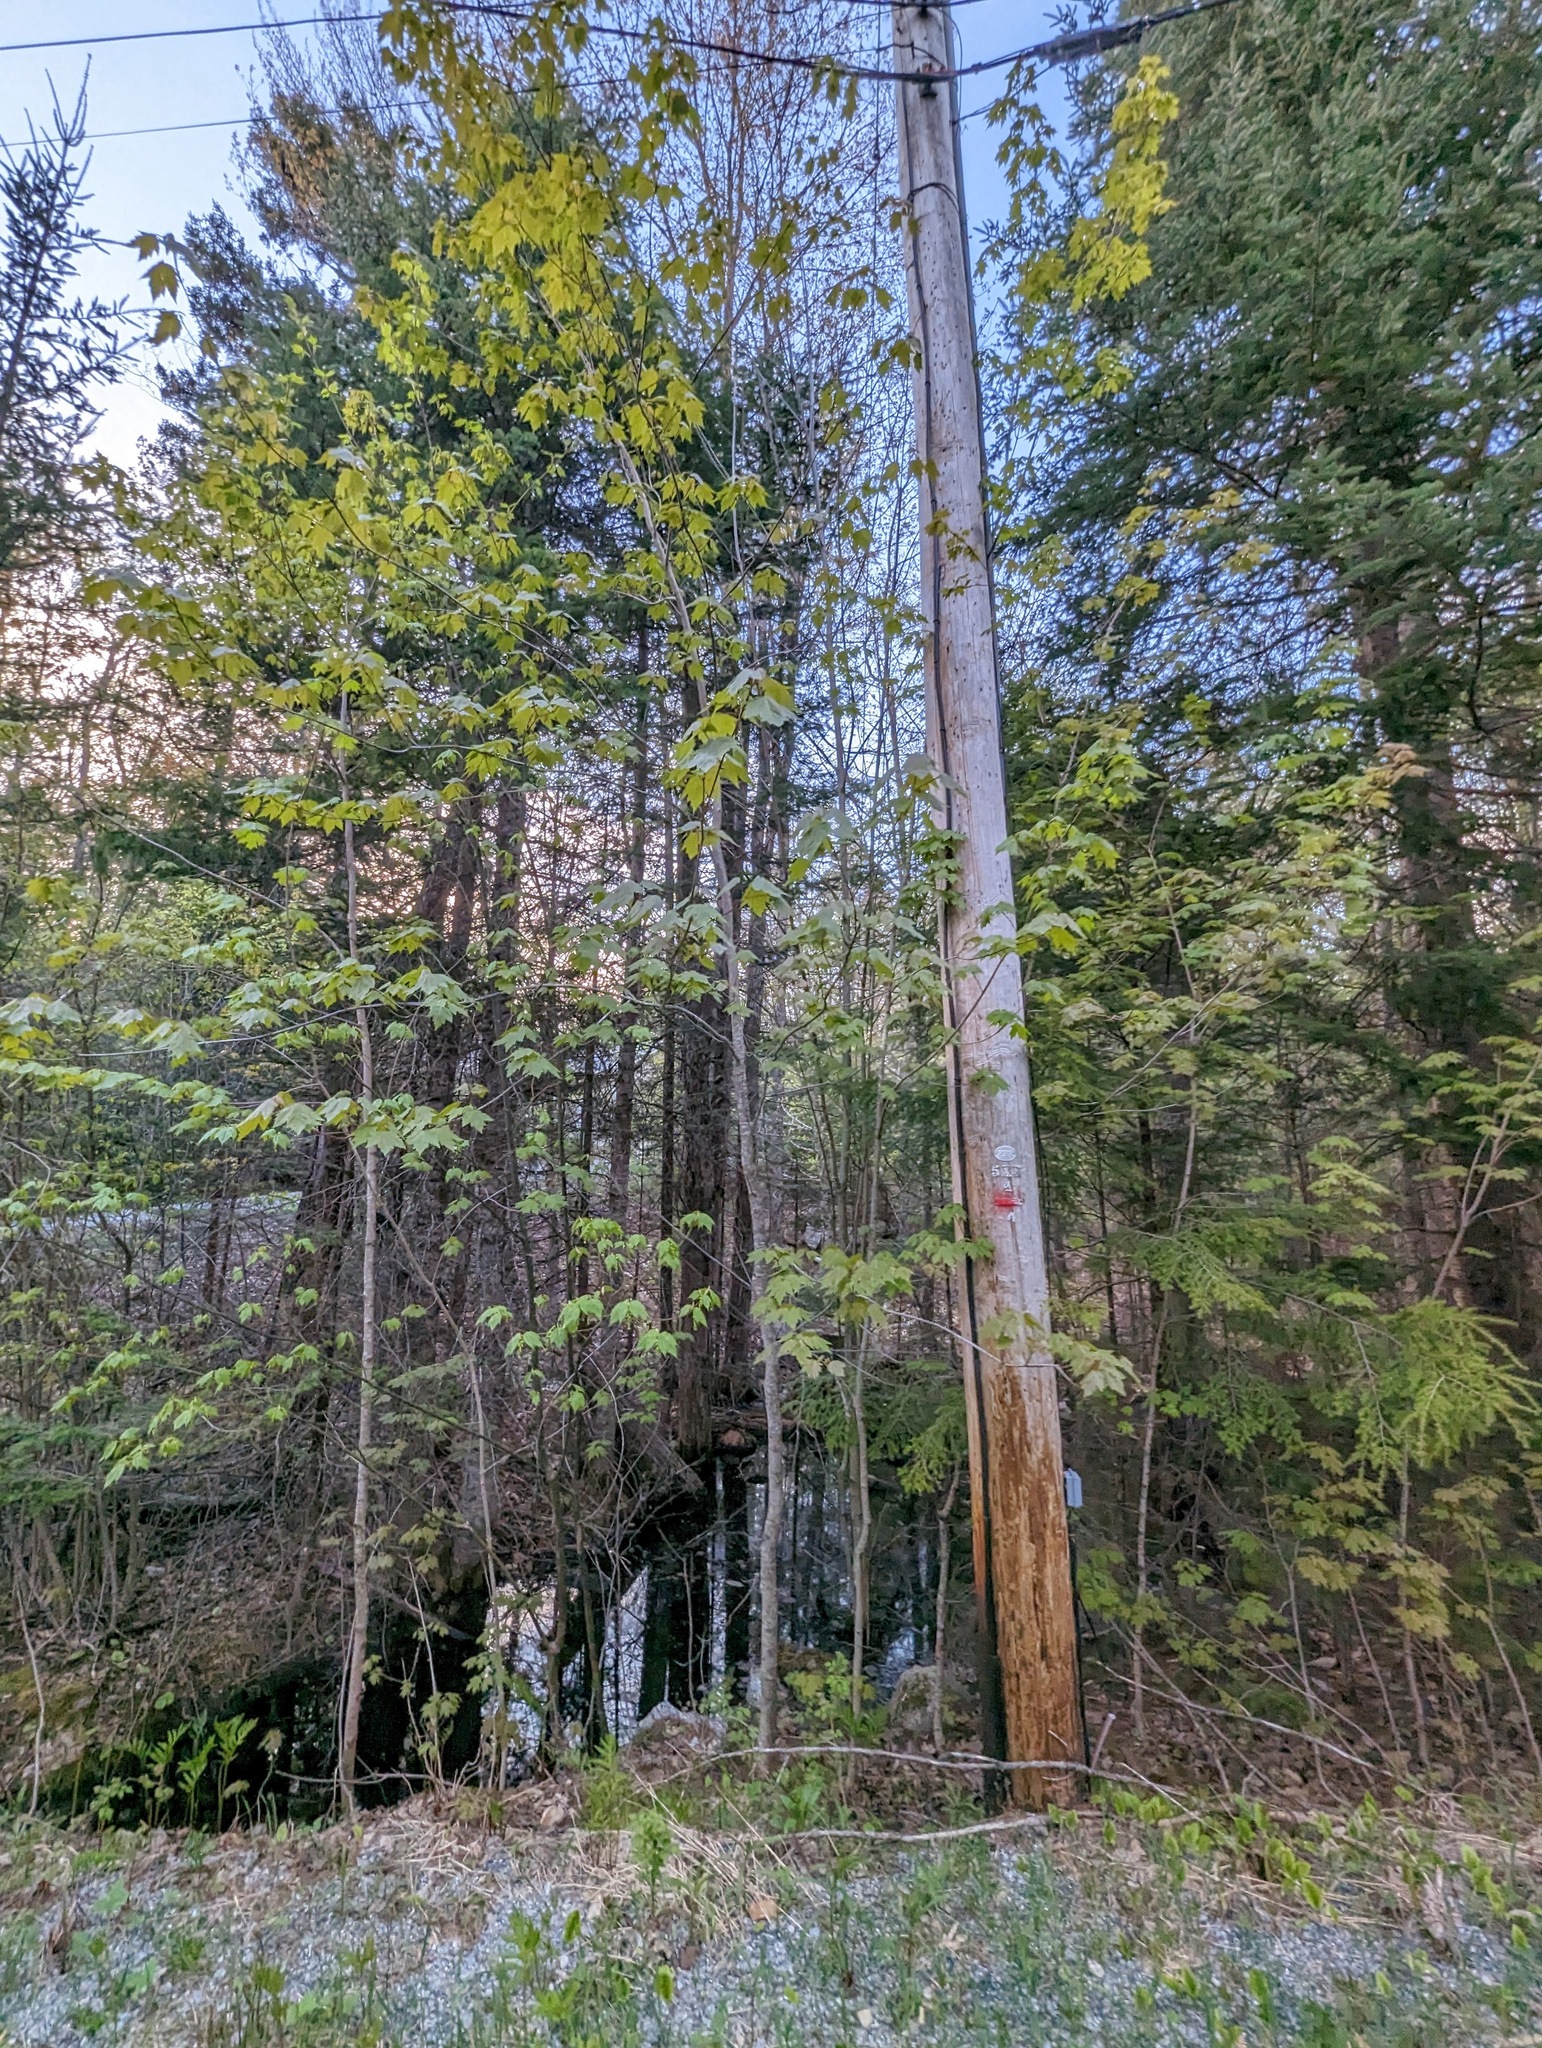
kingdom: Plantae
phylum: Tracheophyta
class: Magnoliopsida
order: Sapindales
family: Sapindaceae
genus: Acer
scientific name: Acer rubrum
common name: Red maple
